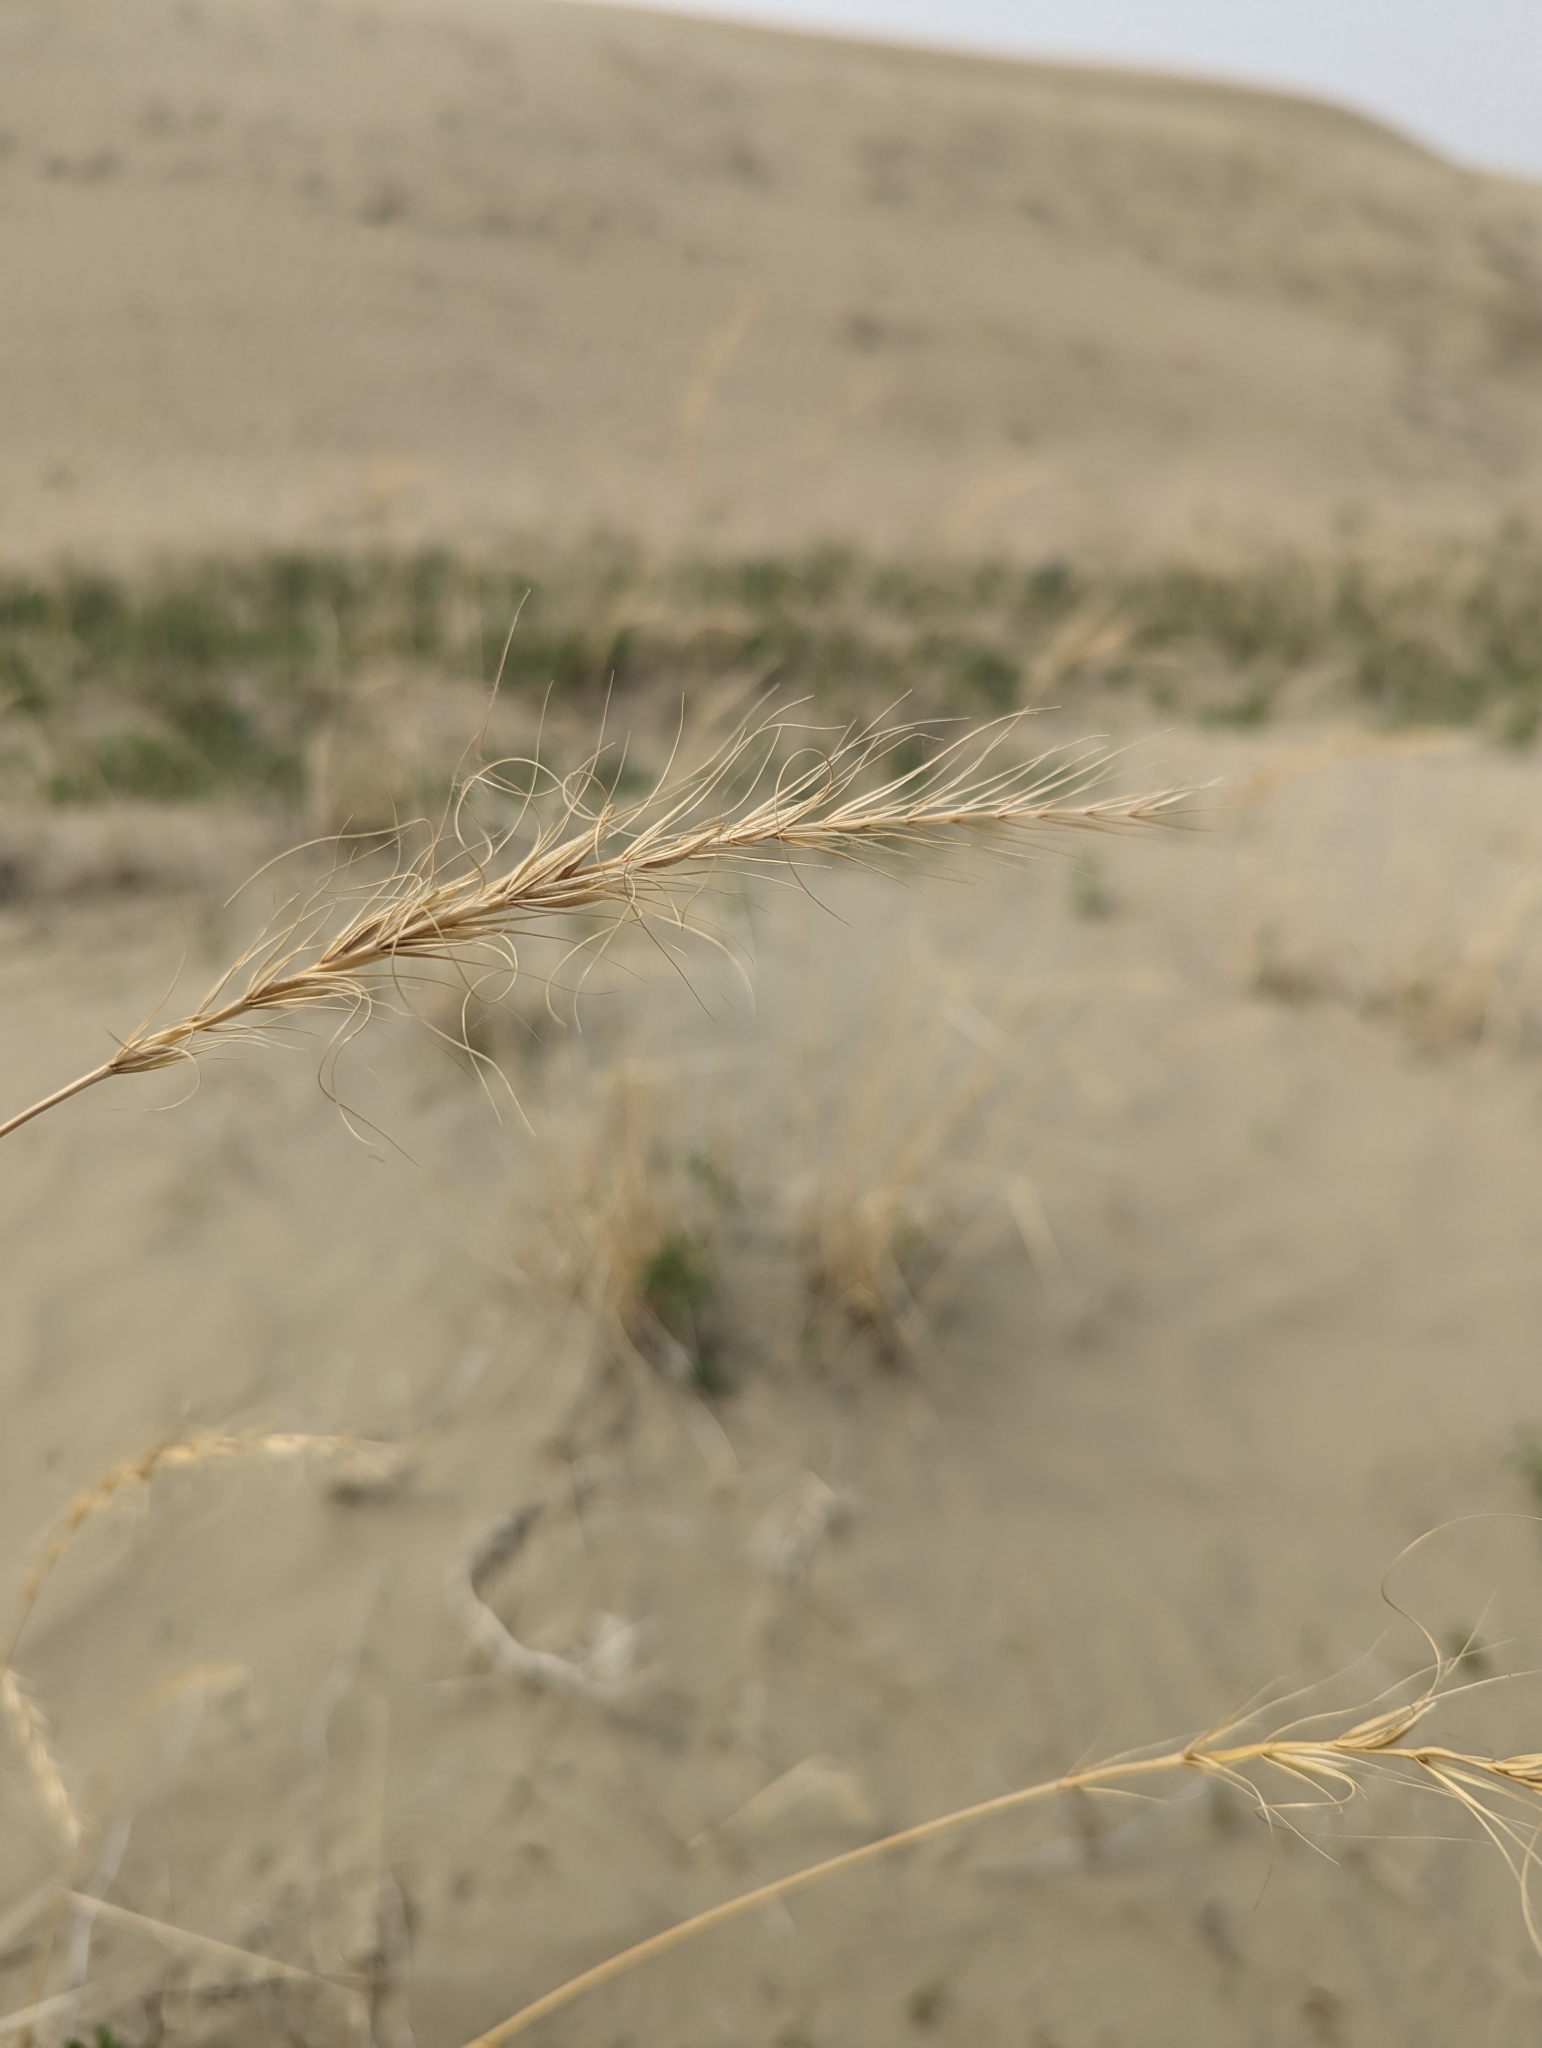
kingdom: Plantae
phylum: Tracheophyta
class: Liliopsida
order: Poales
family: Poaceae
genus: Elymus
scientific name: Elymus canadensis
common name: Canada wild rye
